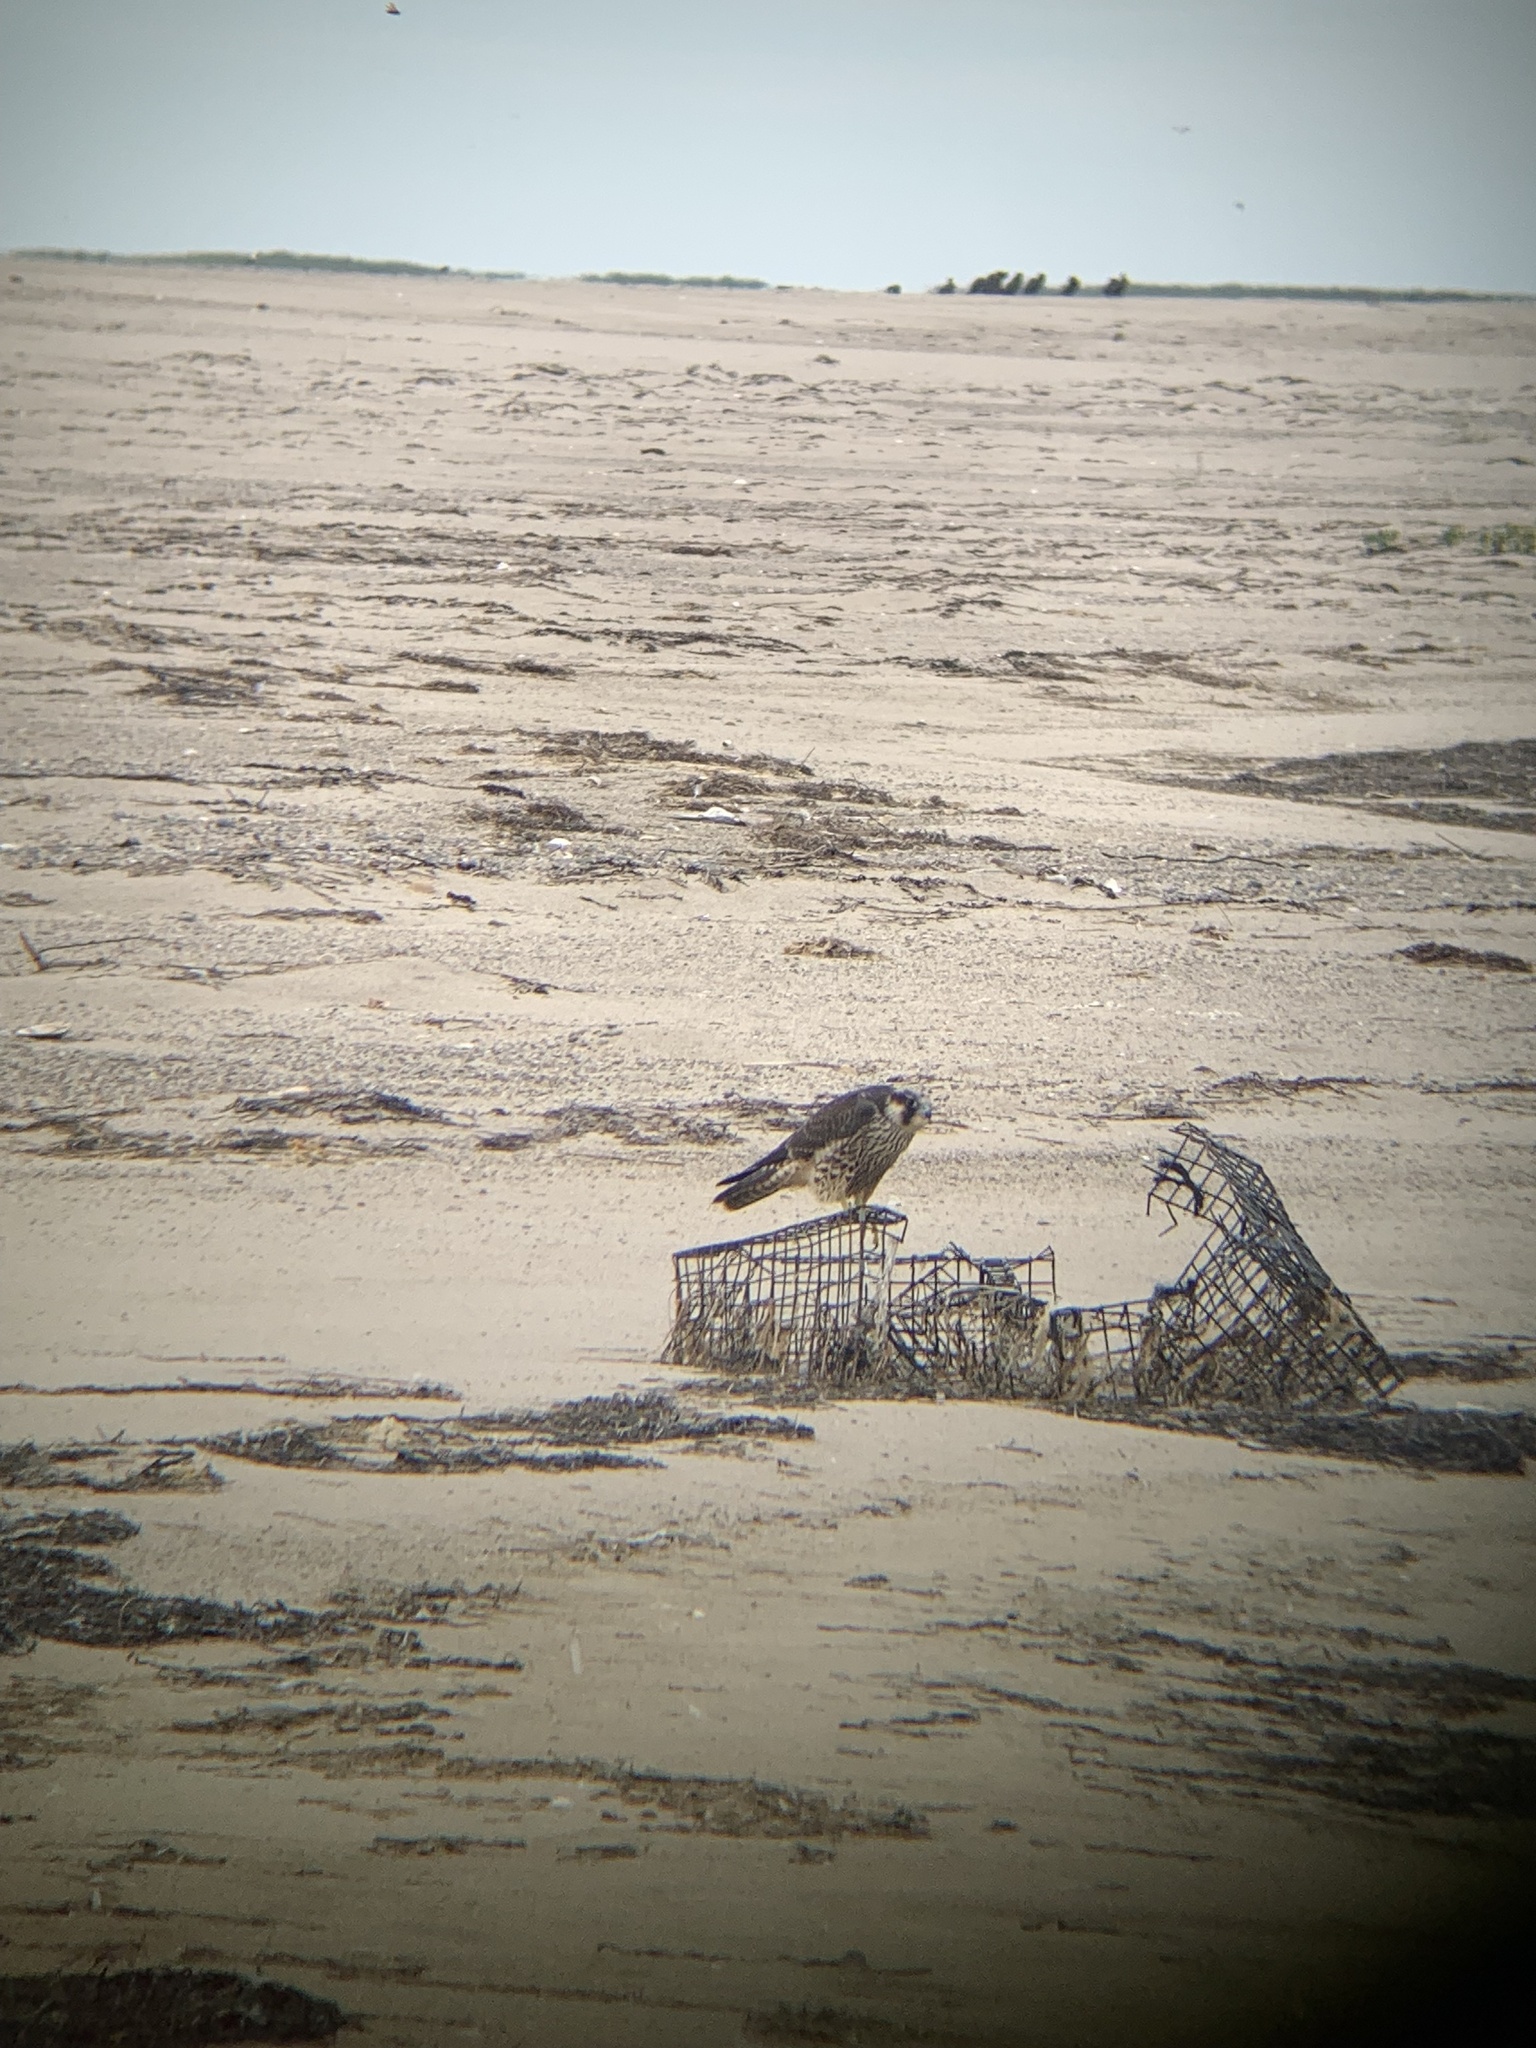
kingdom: Animalia
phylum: Chordata
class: Aves
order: Falconiformes
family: Falconidae
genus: Falco
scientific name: Falco peregrinus
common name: Peregrine falcon
